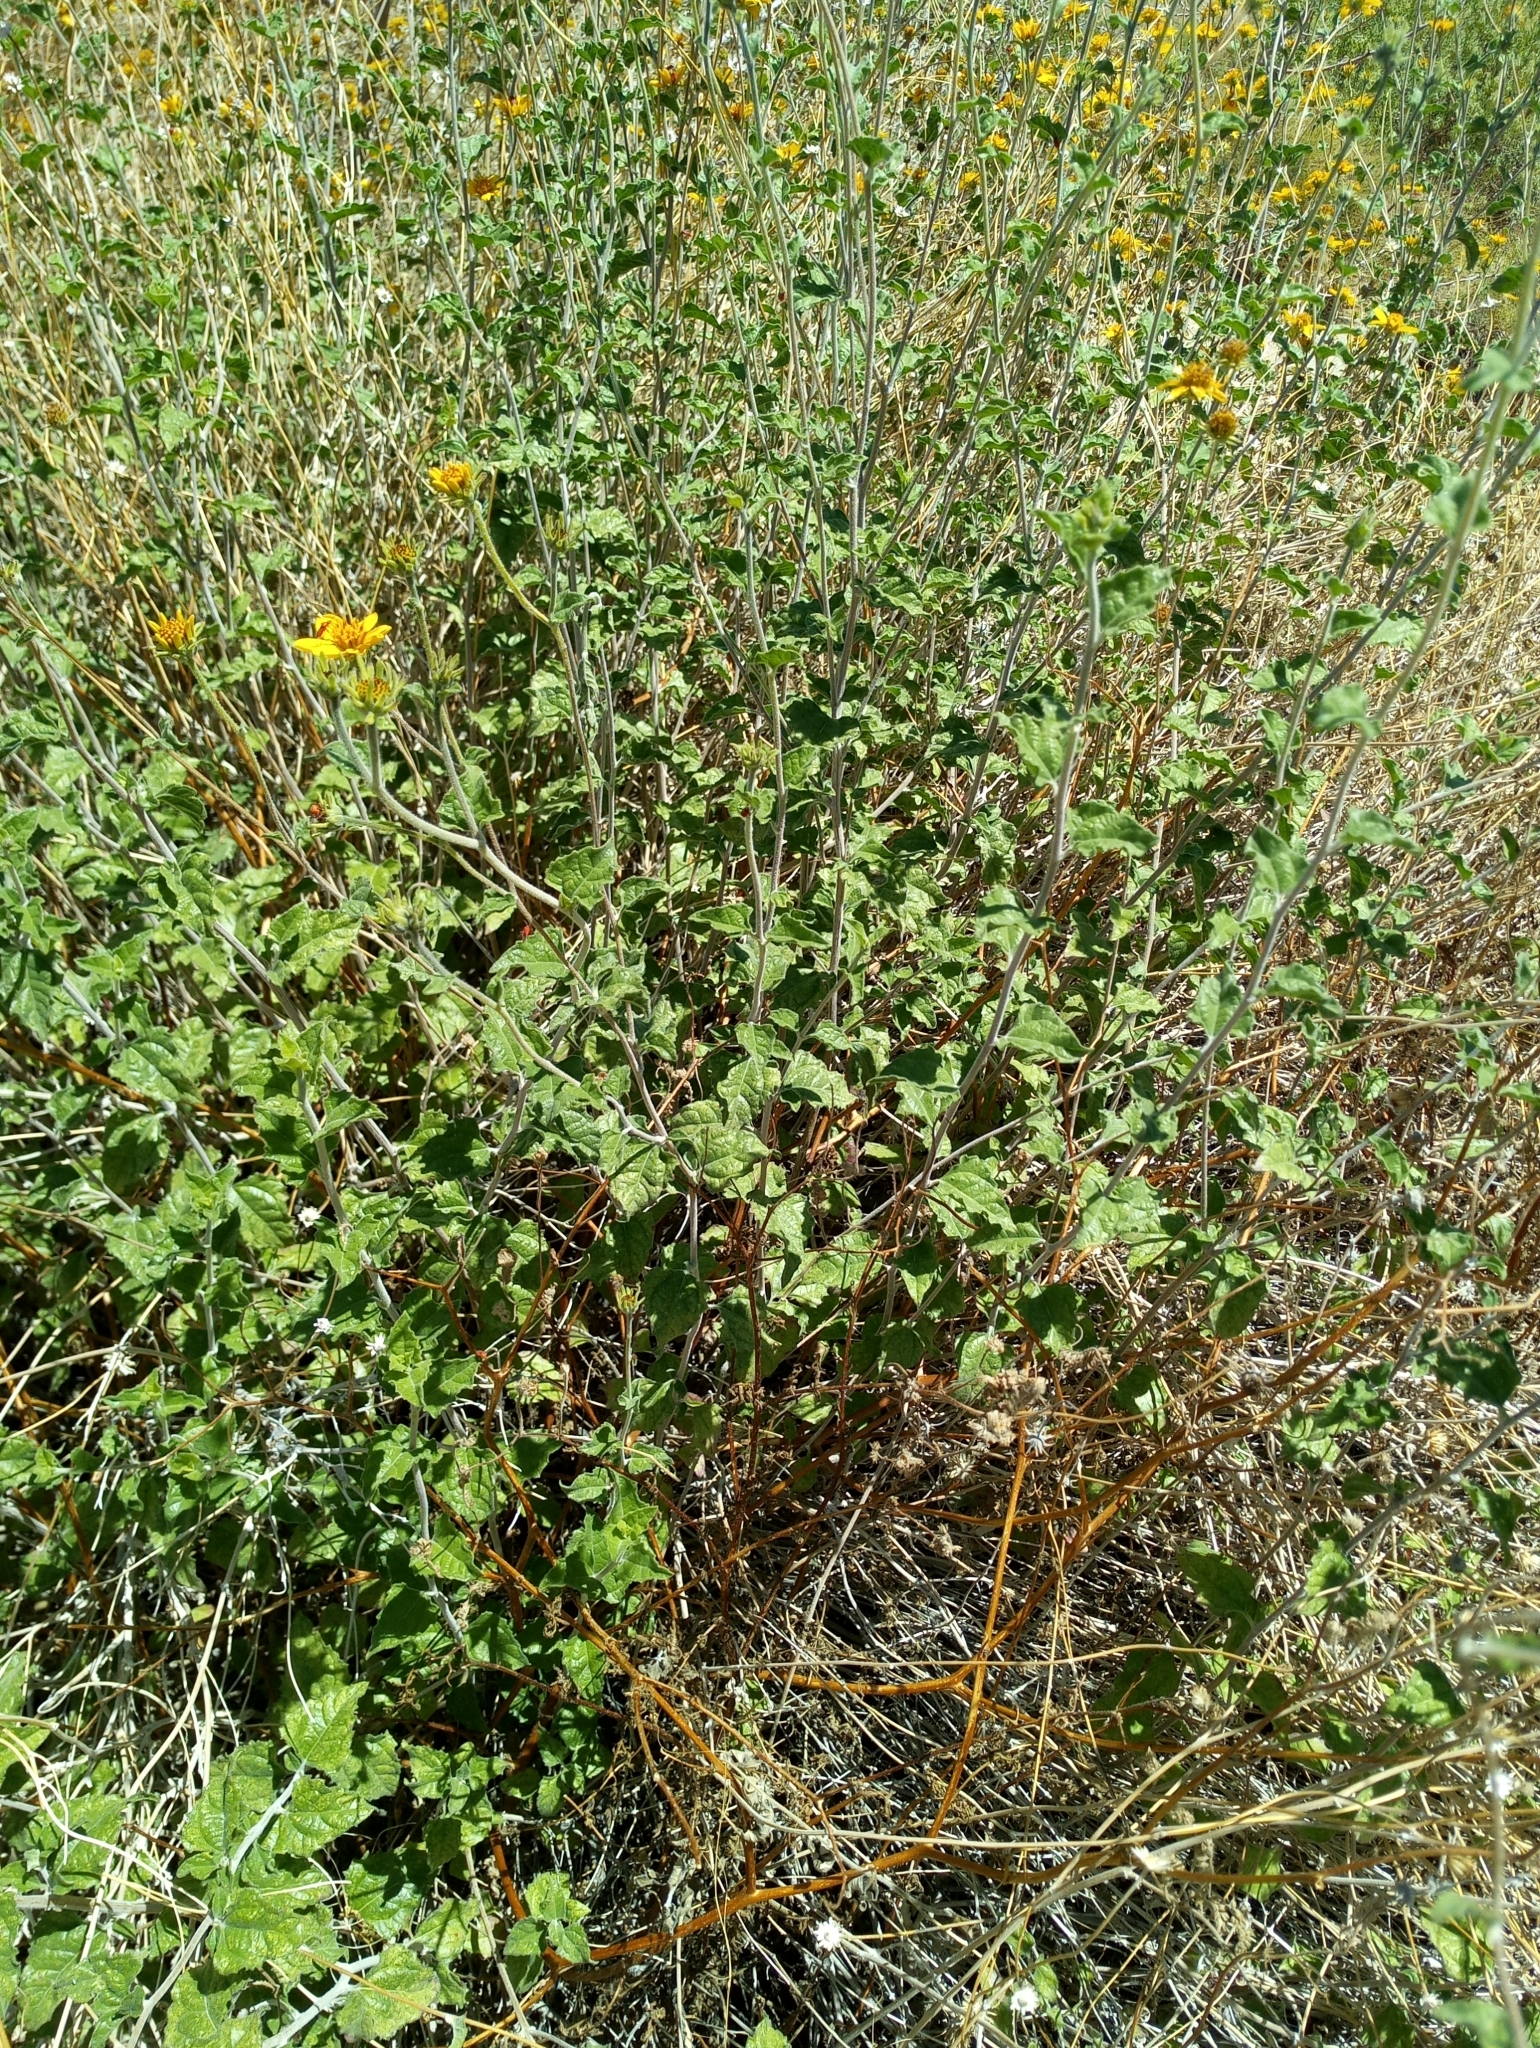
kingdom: Plantae
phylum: Tracheophyta
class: Magnoliopsida
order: Asterales
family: Asteraceae
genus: Bahiopsis
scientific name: Bahiopsis parishii
